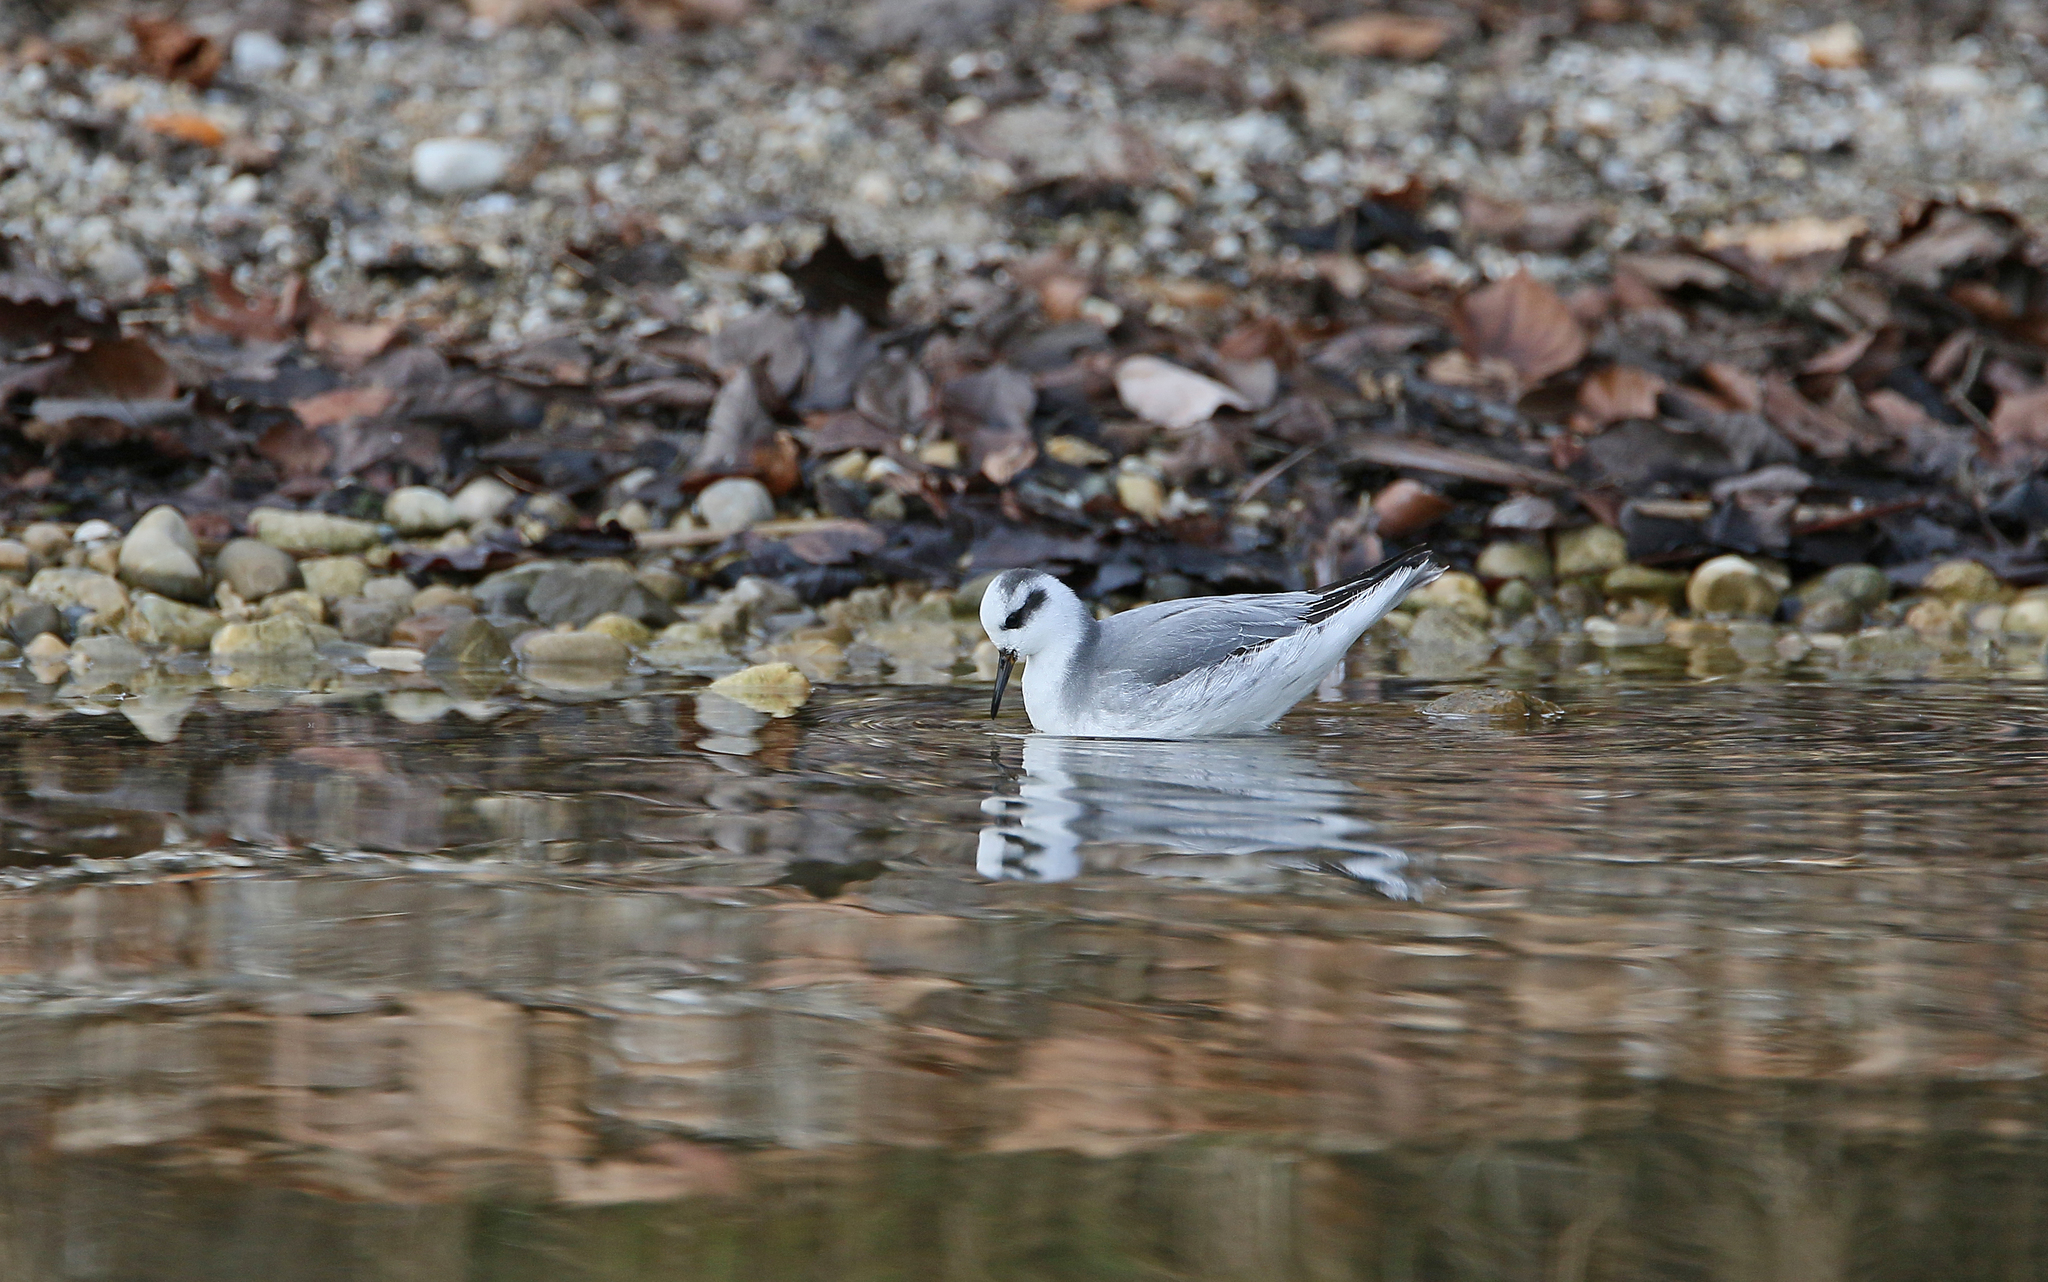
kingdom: Animalia
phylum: Chordata
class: Aves
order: Charadriiformes
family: Scolopacidae
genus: Phalaropus
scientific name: Phalaropus fulicarius
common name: Red phalarope
